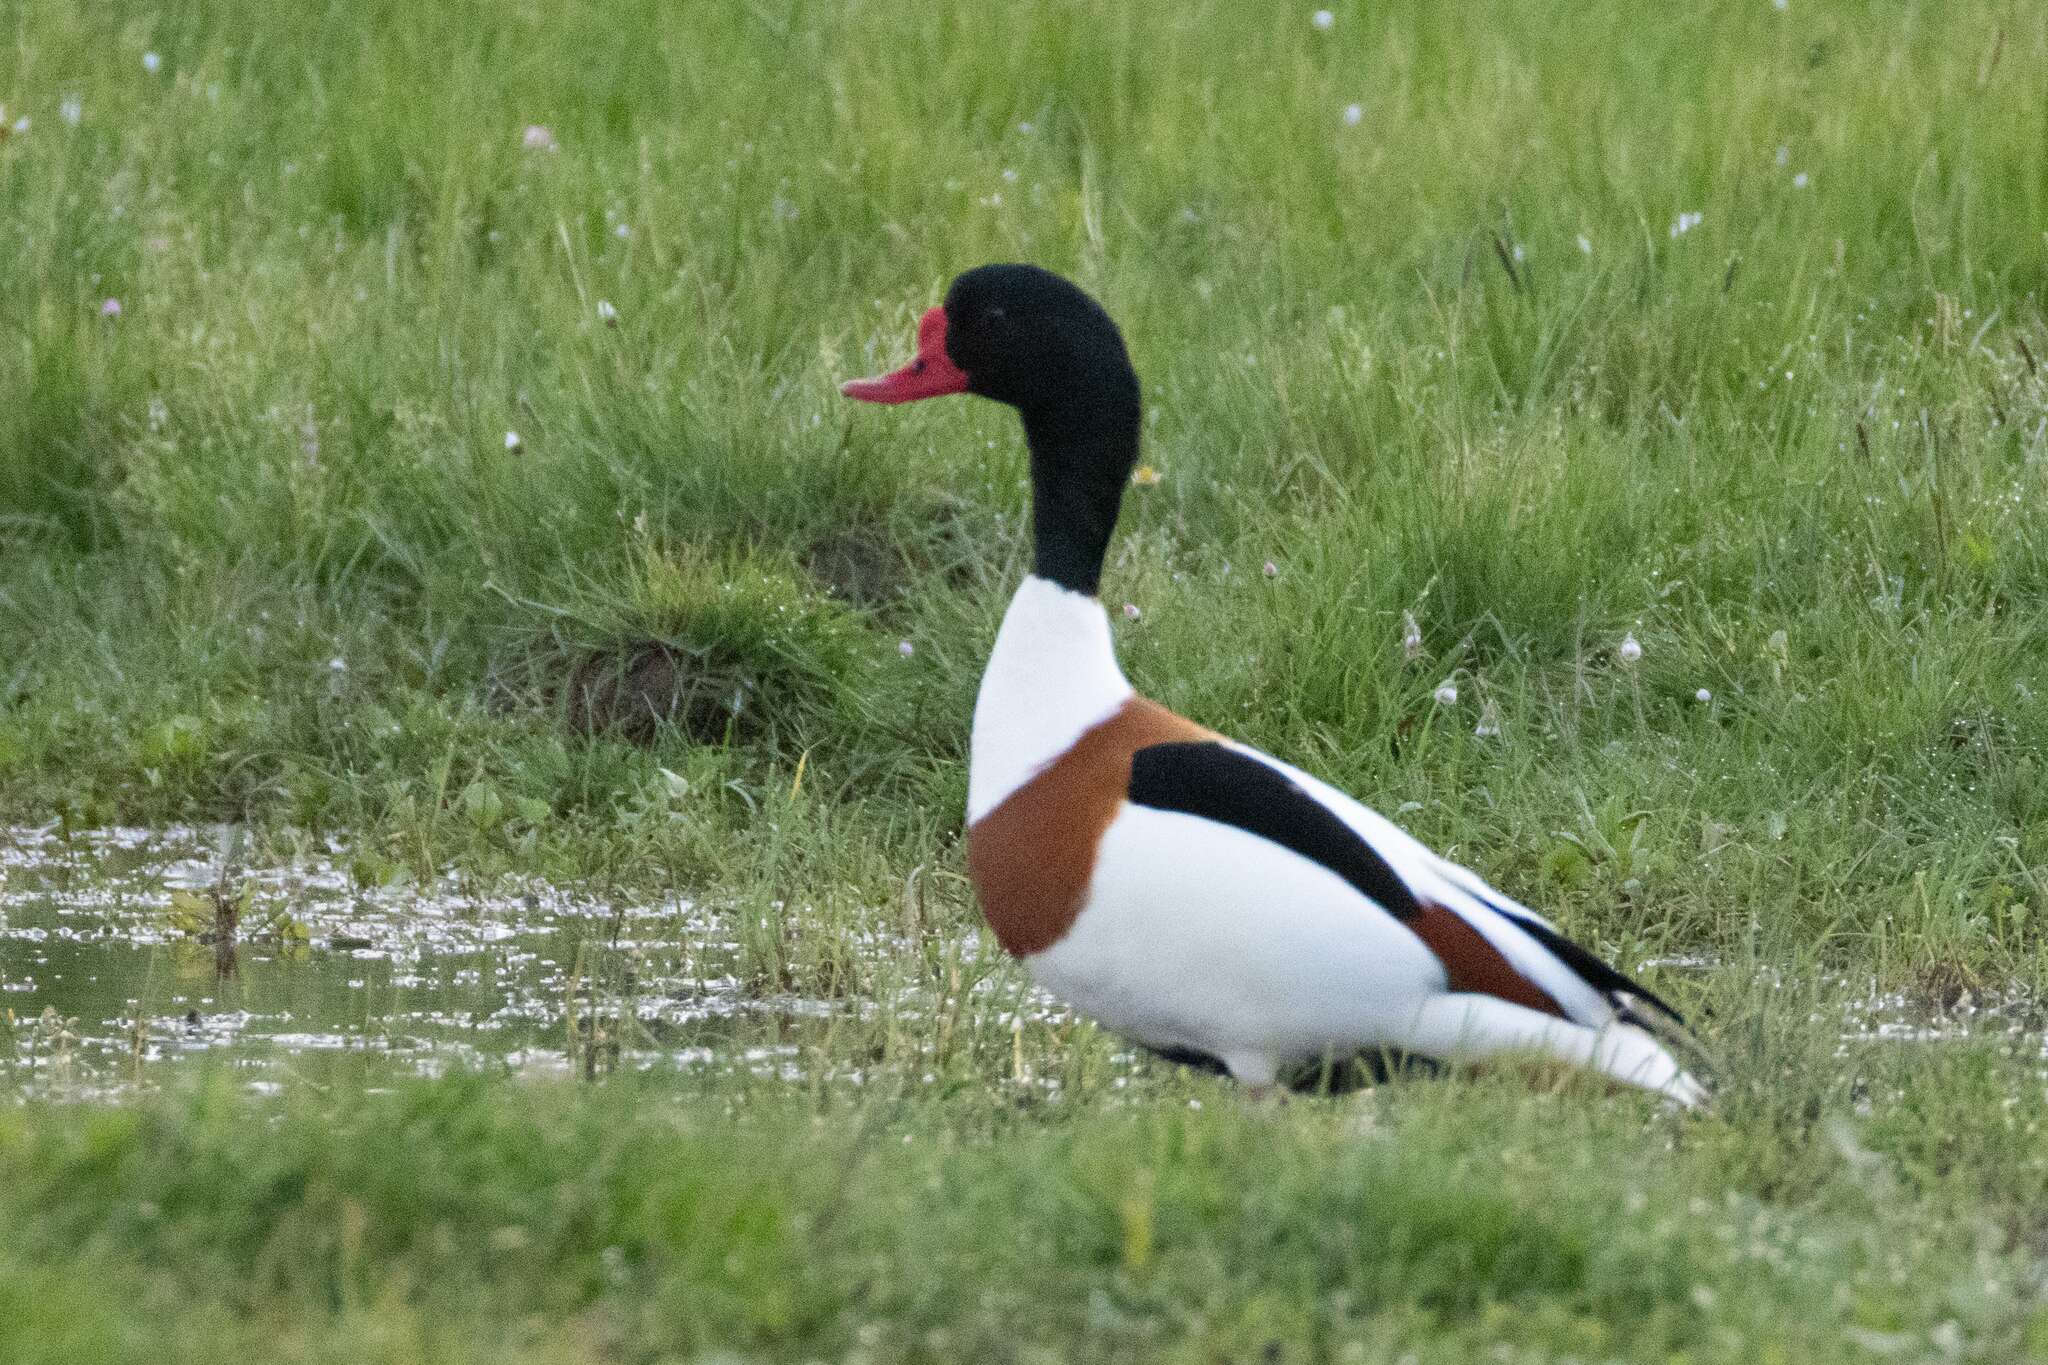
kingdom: Animalia
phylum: Chordata
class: Aves
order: Anseriformes
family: Anatidae
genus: Tadorna
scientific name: Tadorna tadorna
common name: Common shelduck
